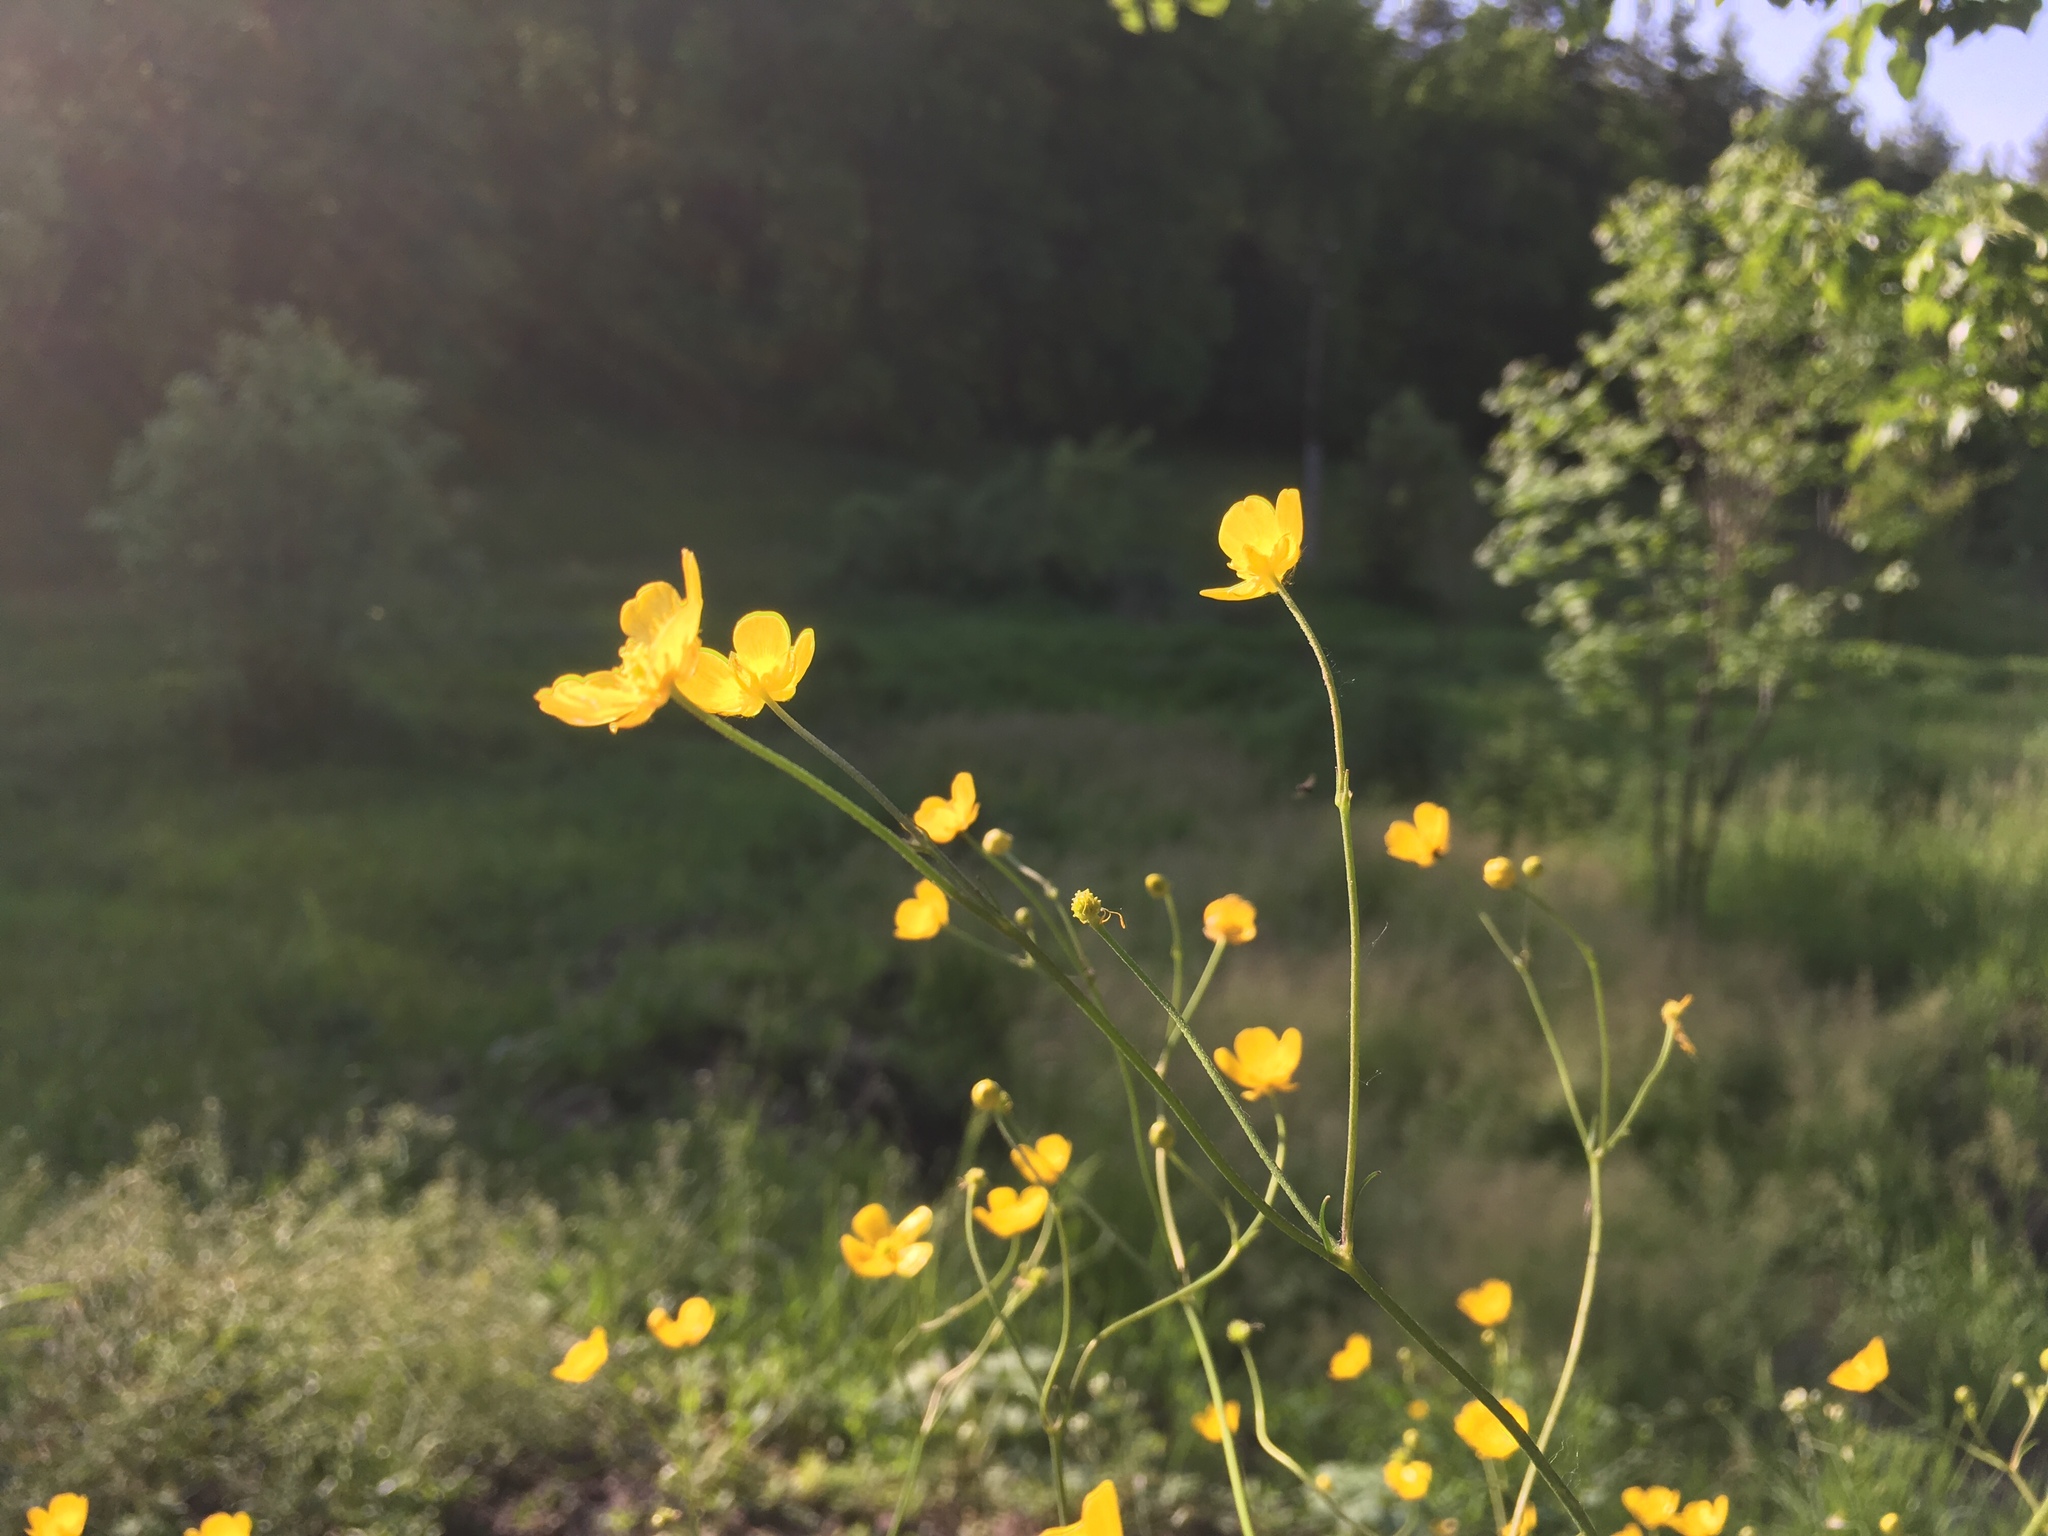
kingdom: Plantae
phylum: Tracheophyta
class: Magnoliopsida
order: Ranunculales
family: Ranunculaceae
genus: Ranunculus
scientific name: Ranunculus acris
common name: Meadow buttercup
